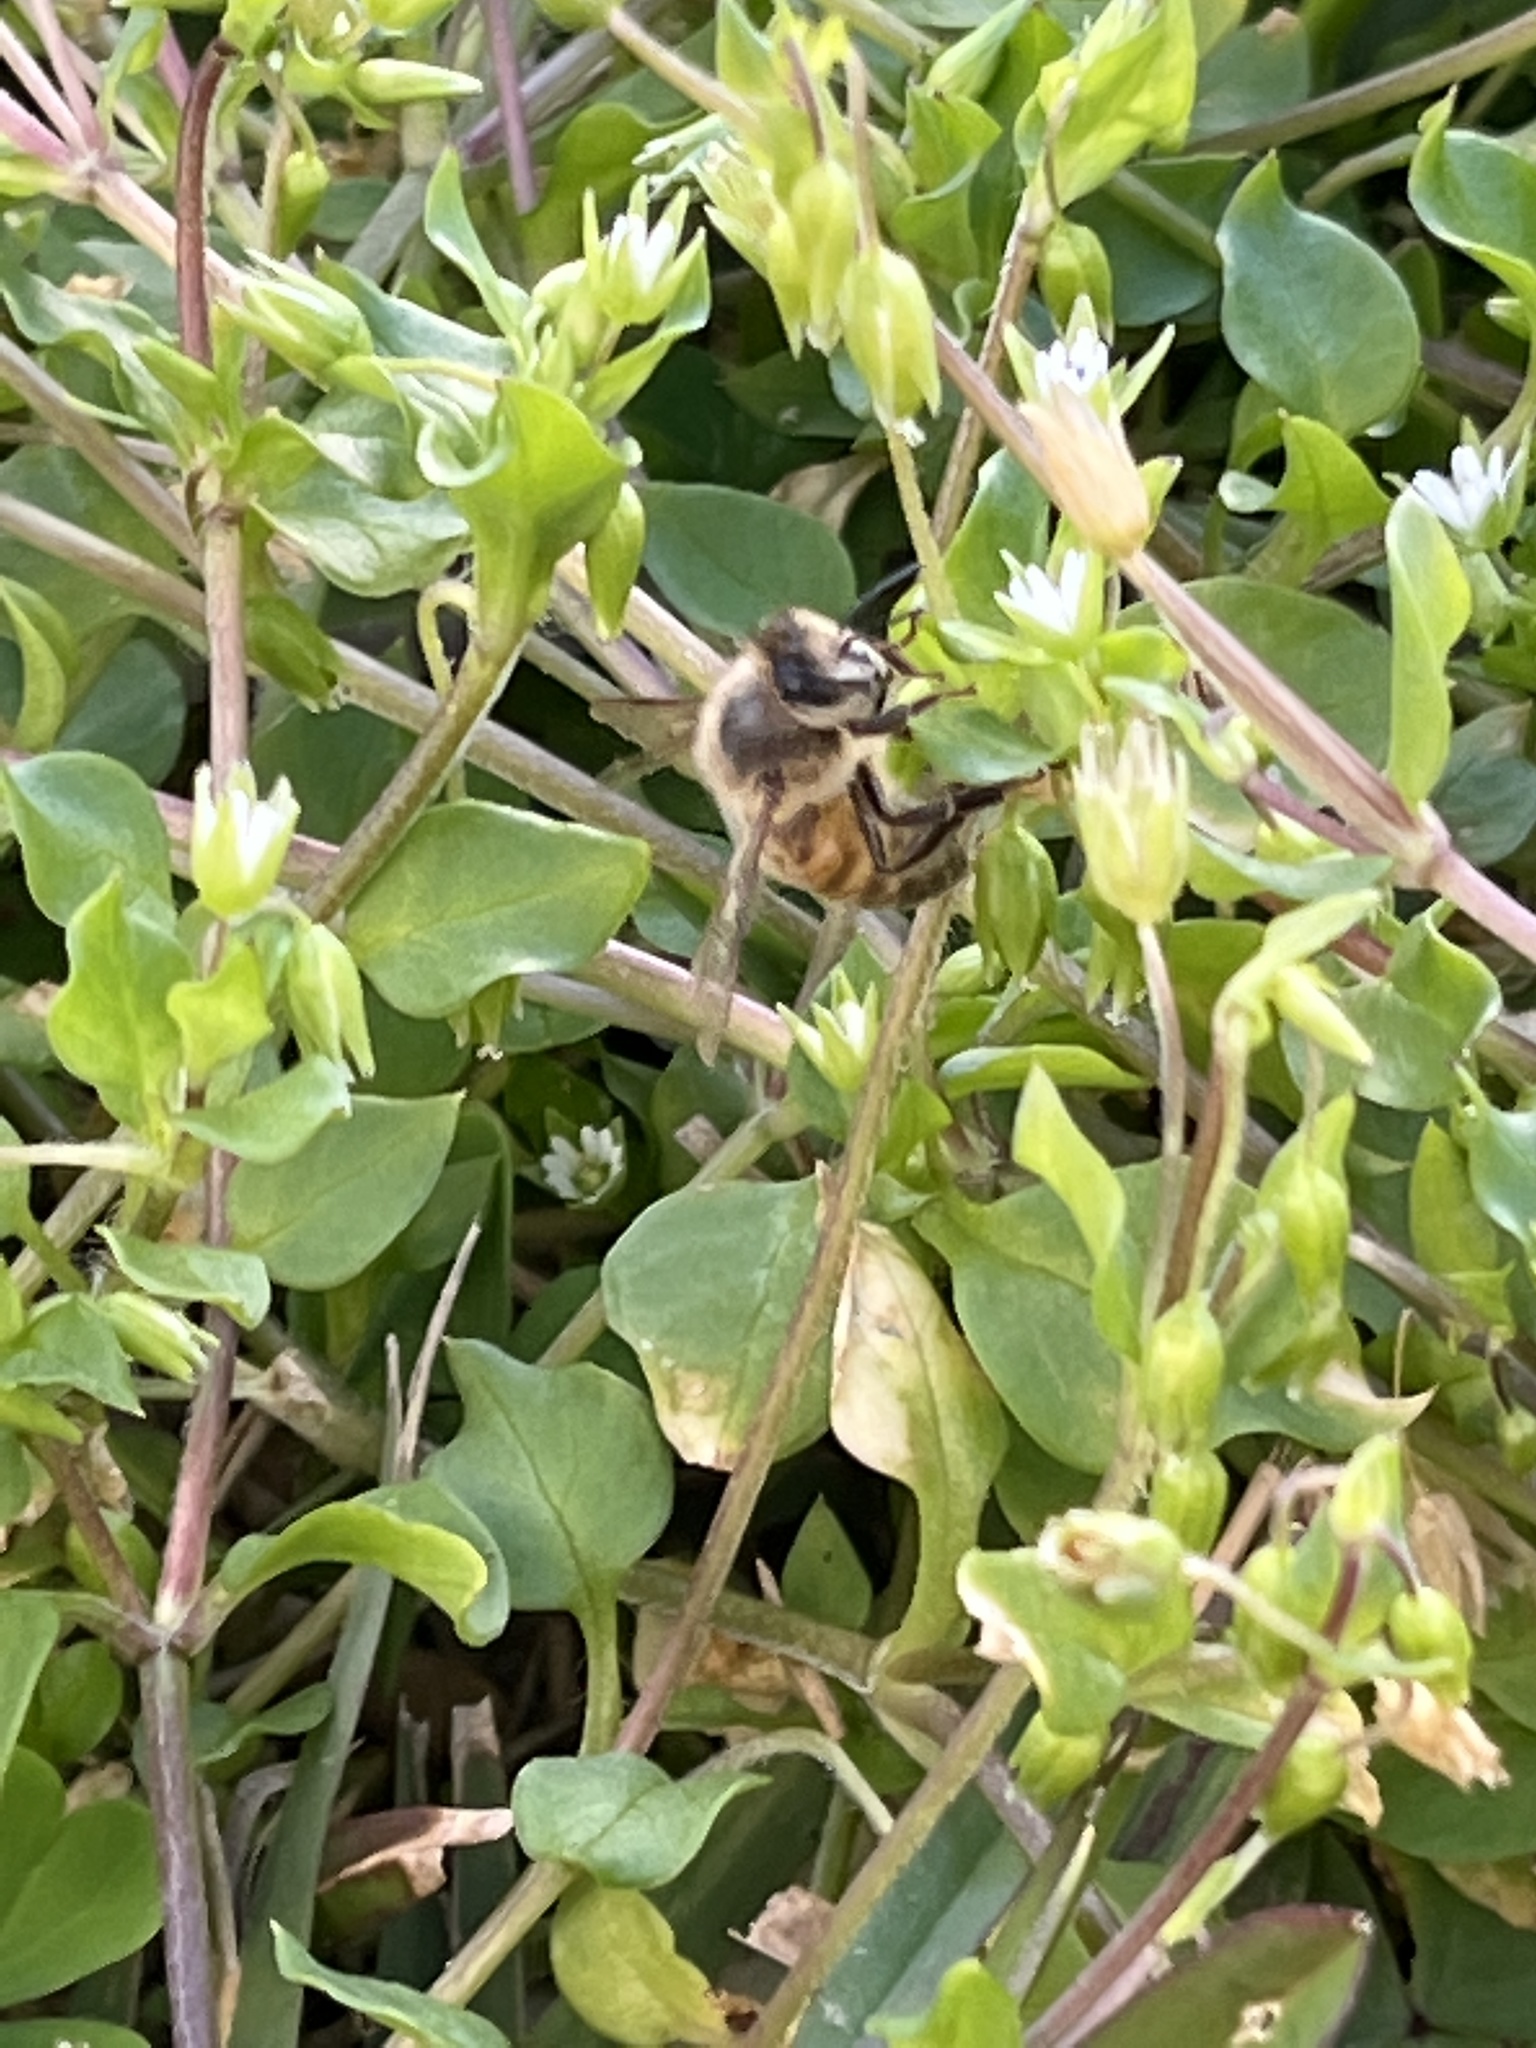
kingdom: Animalia
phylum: Arthropoda
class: Insecta
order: Hymenoptera
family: Apidae
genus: Apis
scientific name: Apis mellifera
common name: Honey bee
